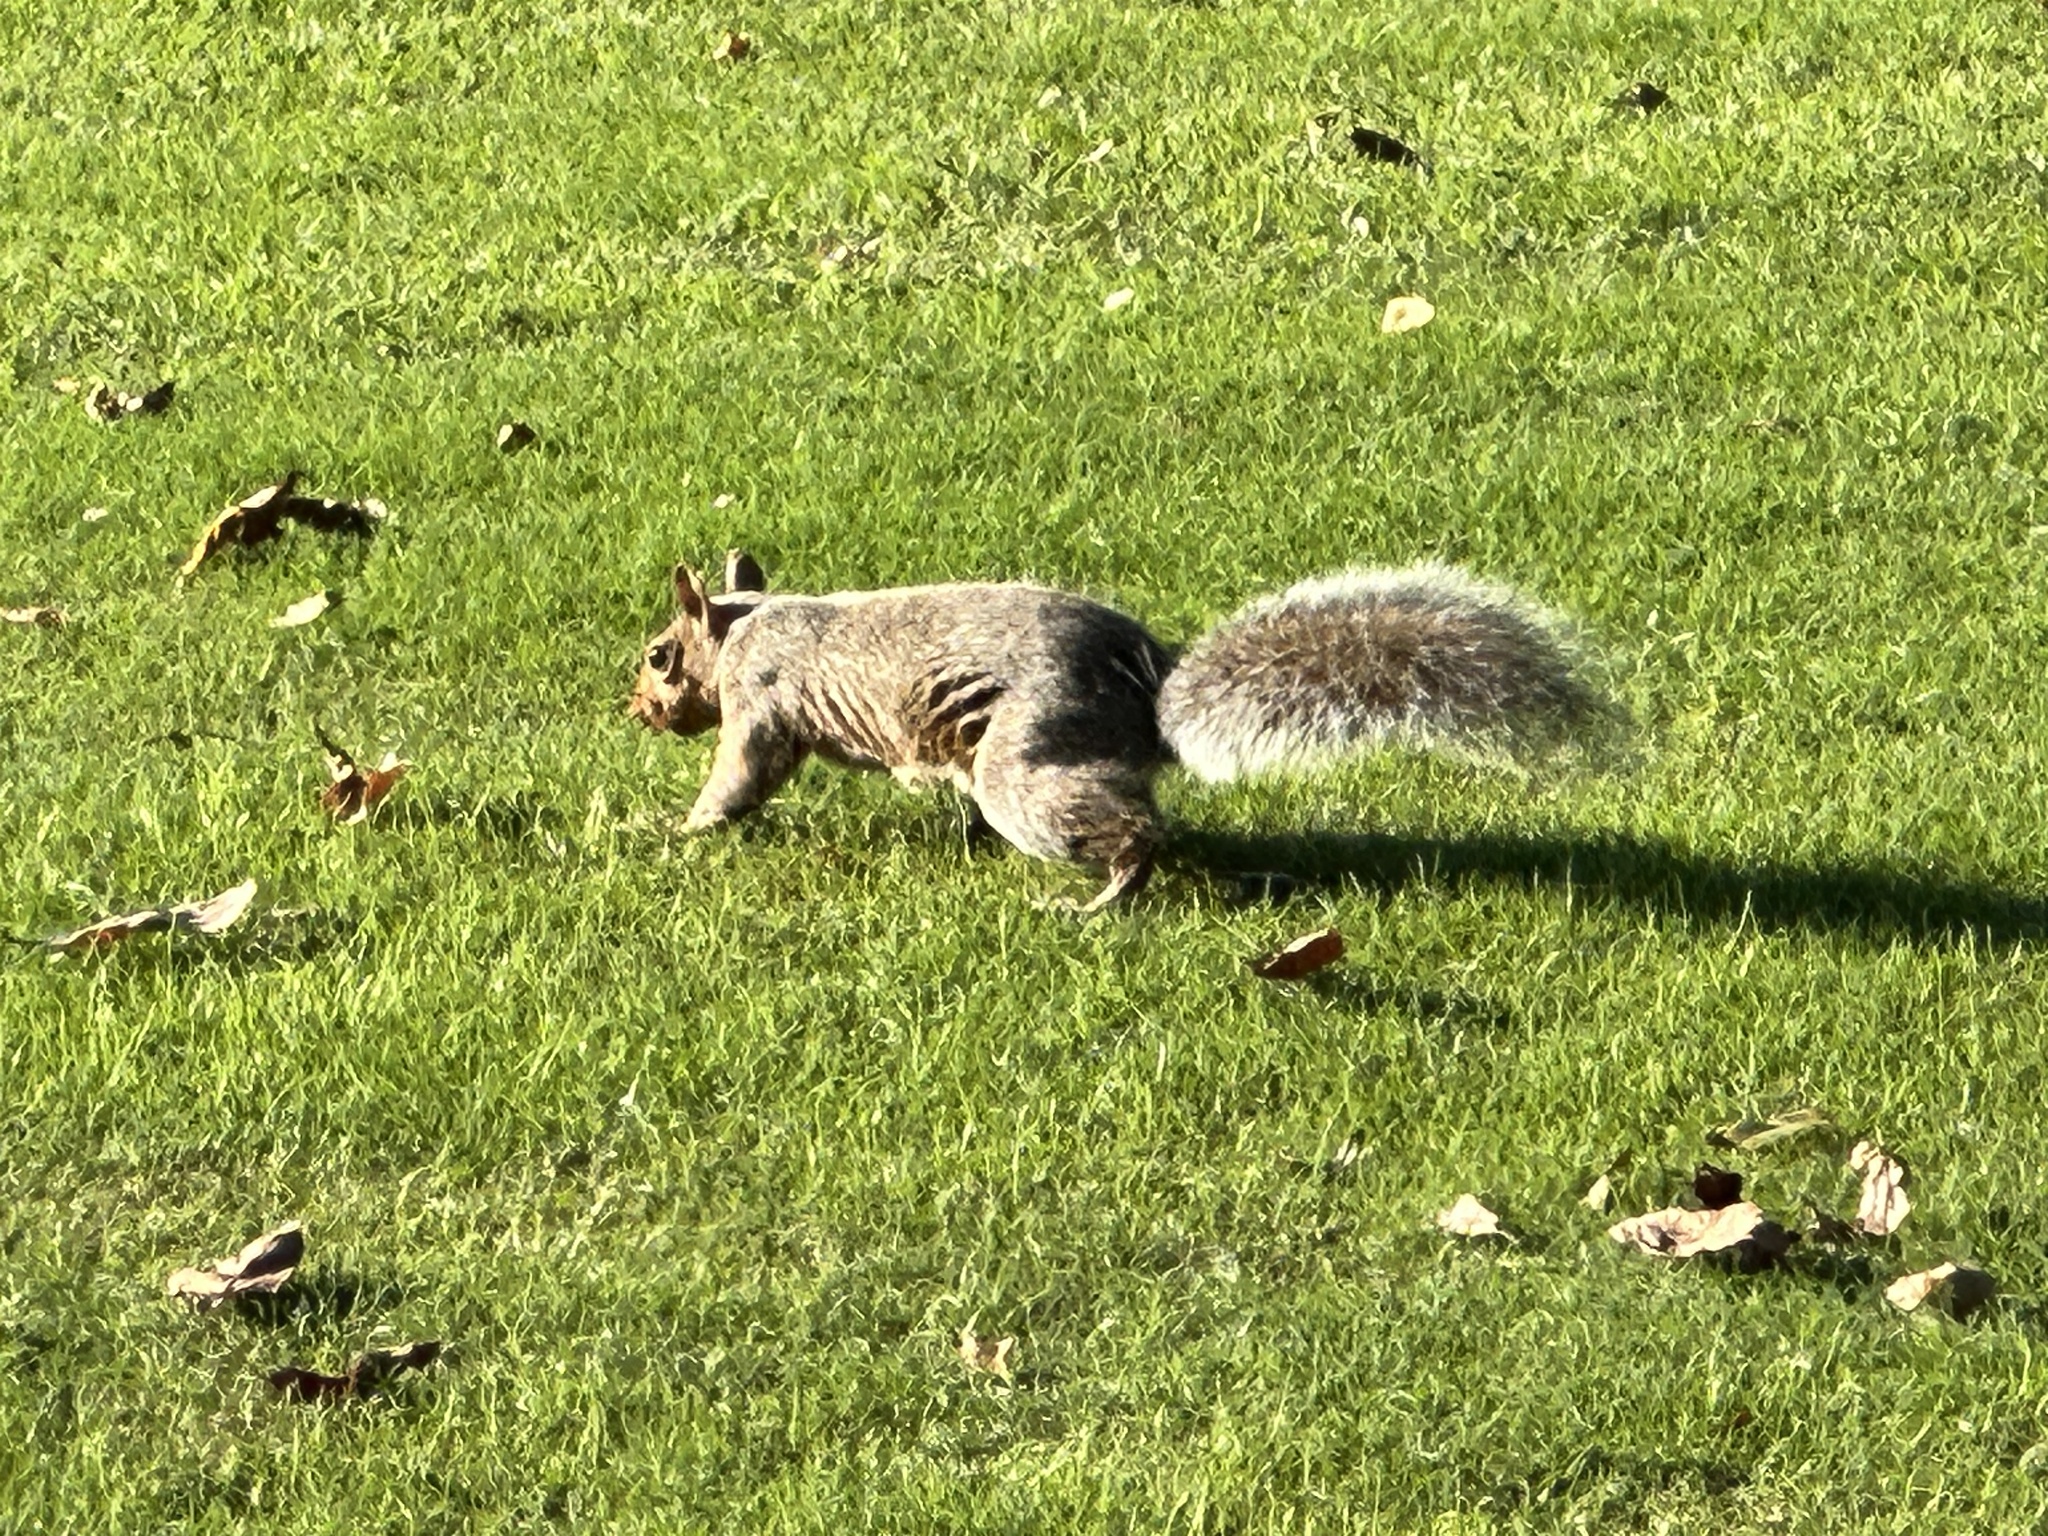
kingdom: Animalia
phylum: Chordata
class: Mammalia
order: Rodentia
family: Sciuridae
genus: Sciurus
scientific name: Sciurus carolinensis
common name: Eastern gray squirrel
